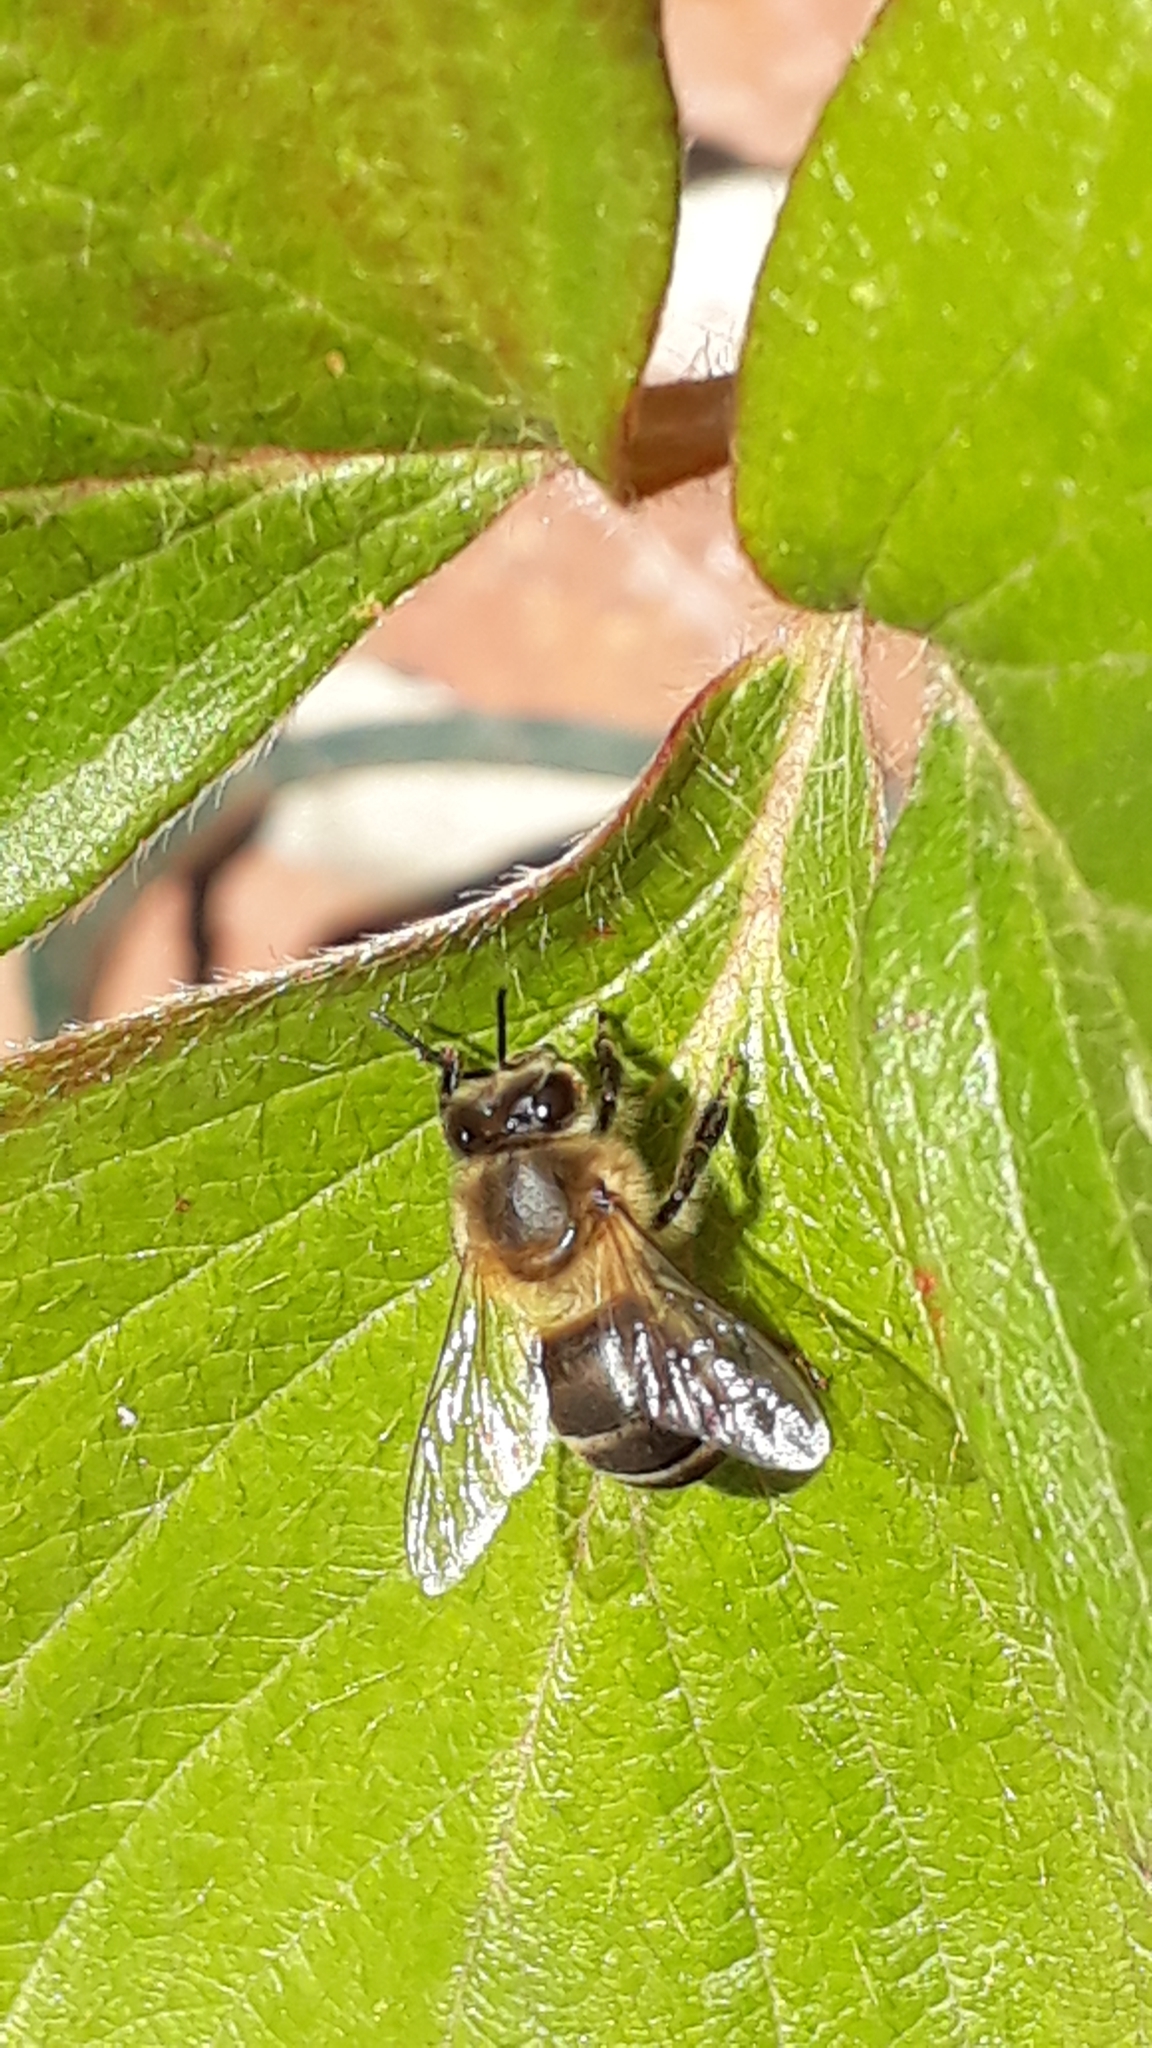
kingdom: Animalia
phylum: Arthropoda
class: Insecta
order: Hymenoptera
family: Apidae
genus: Apis
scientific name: Apis mellifera
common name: Honey bee
